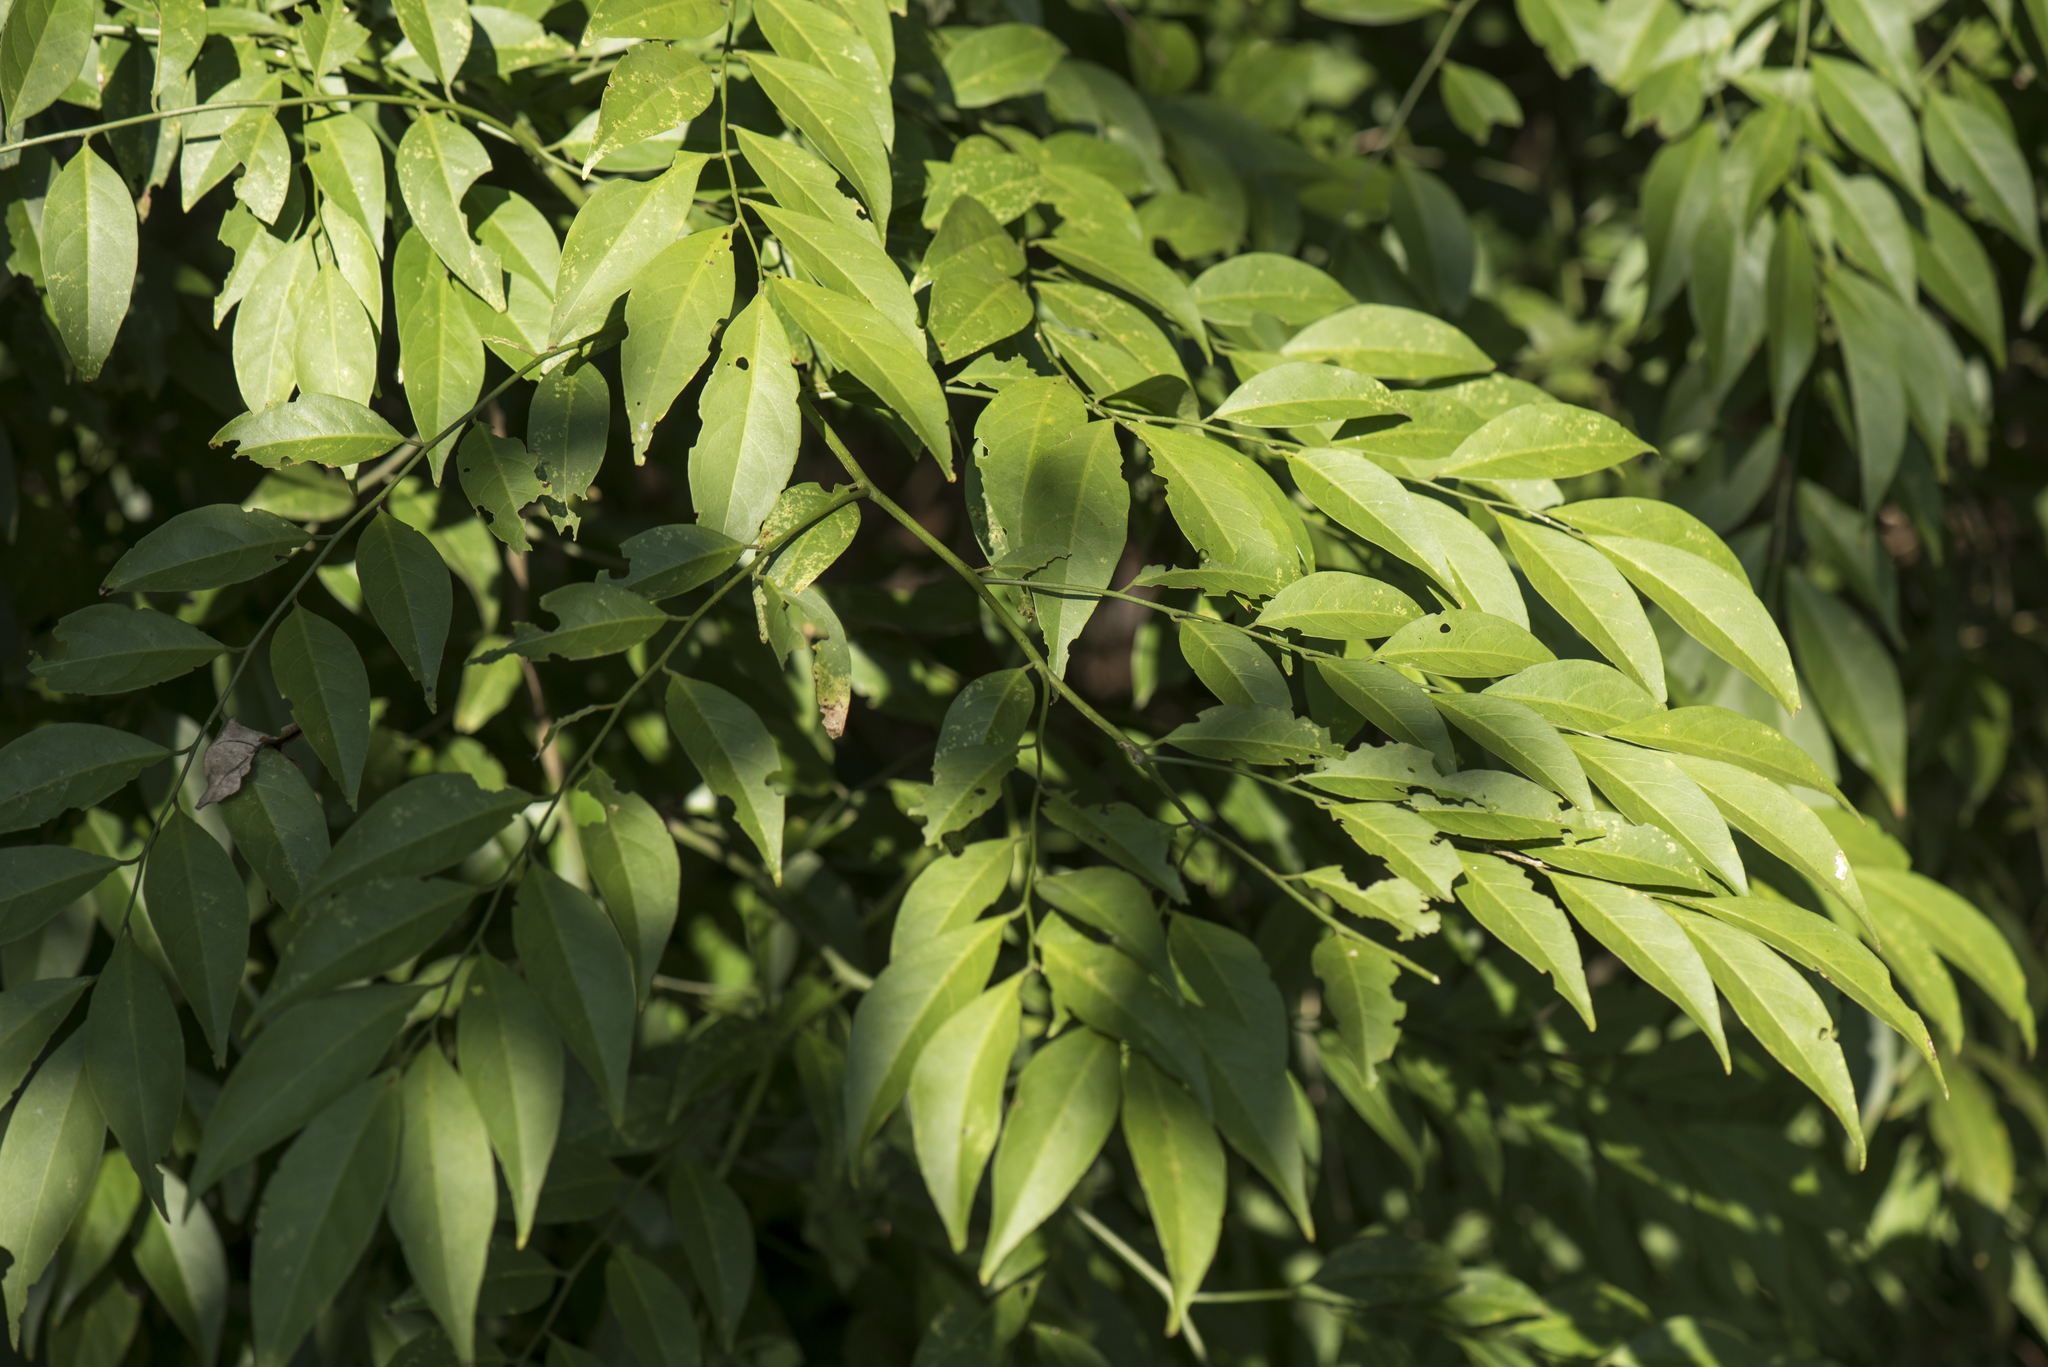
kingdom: Plantae
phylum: Tracheophyta
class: Magnoliopsida
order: Brassicales
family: Capparaceae
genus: Capparis
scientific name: Capparis sabiifolia
